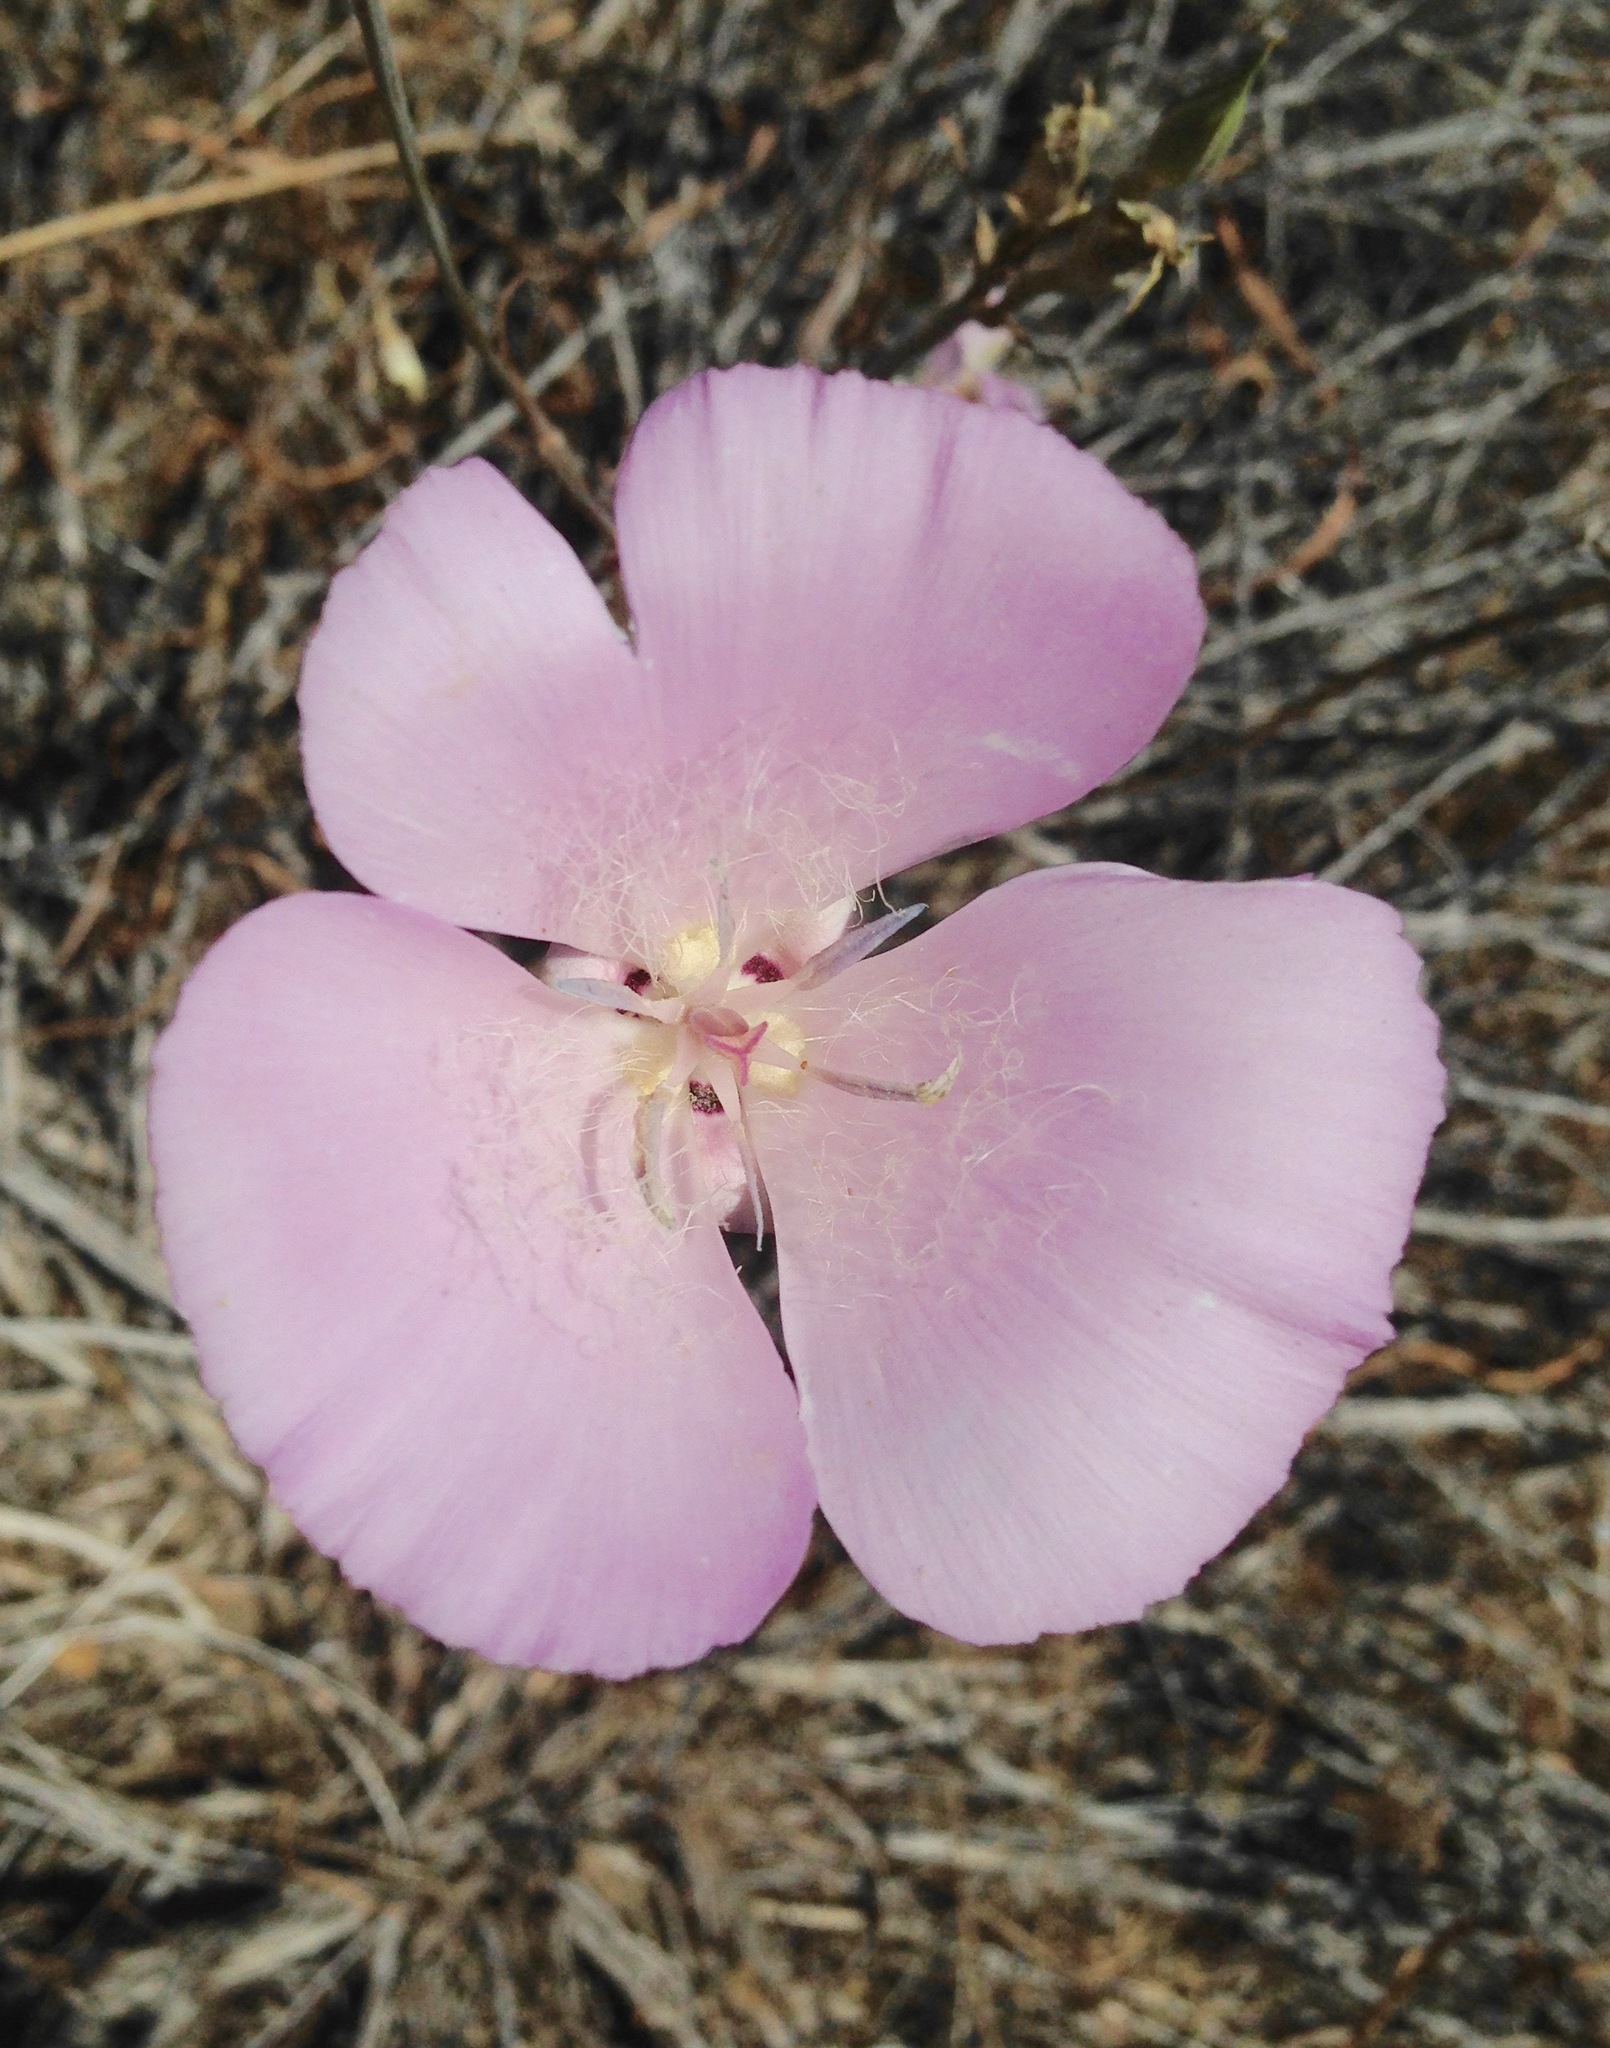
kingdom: Plantae
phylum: Tracheophyta
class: Liliopsida
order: Liliales
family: Liliaceae
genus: Calochortus
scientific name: Calochortus splendens
